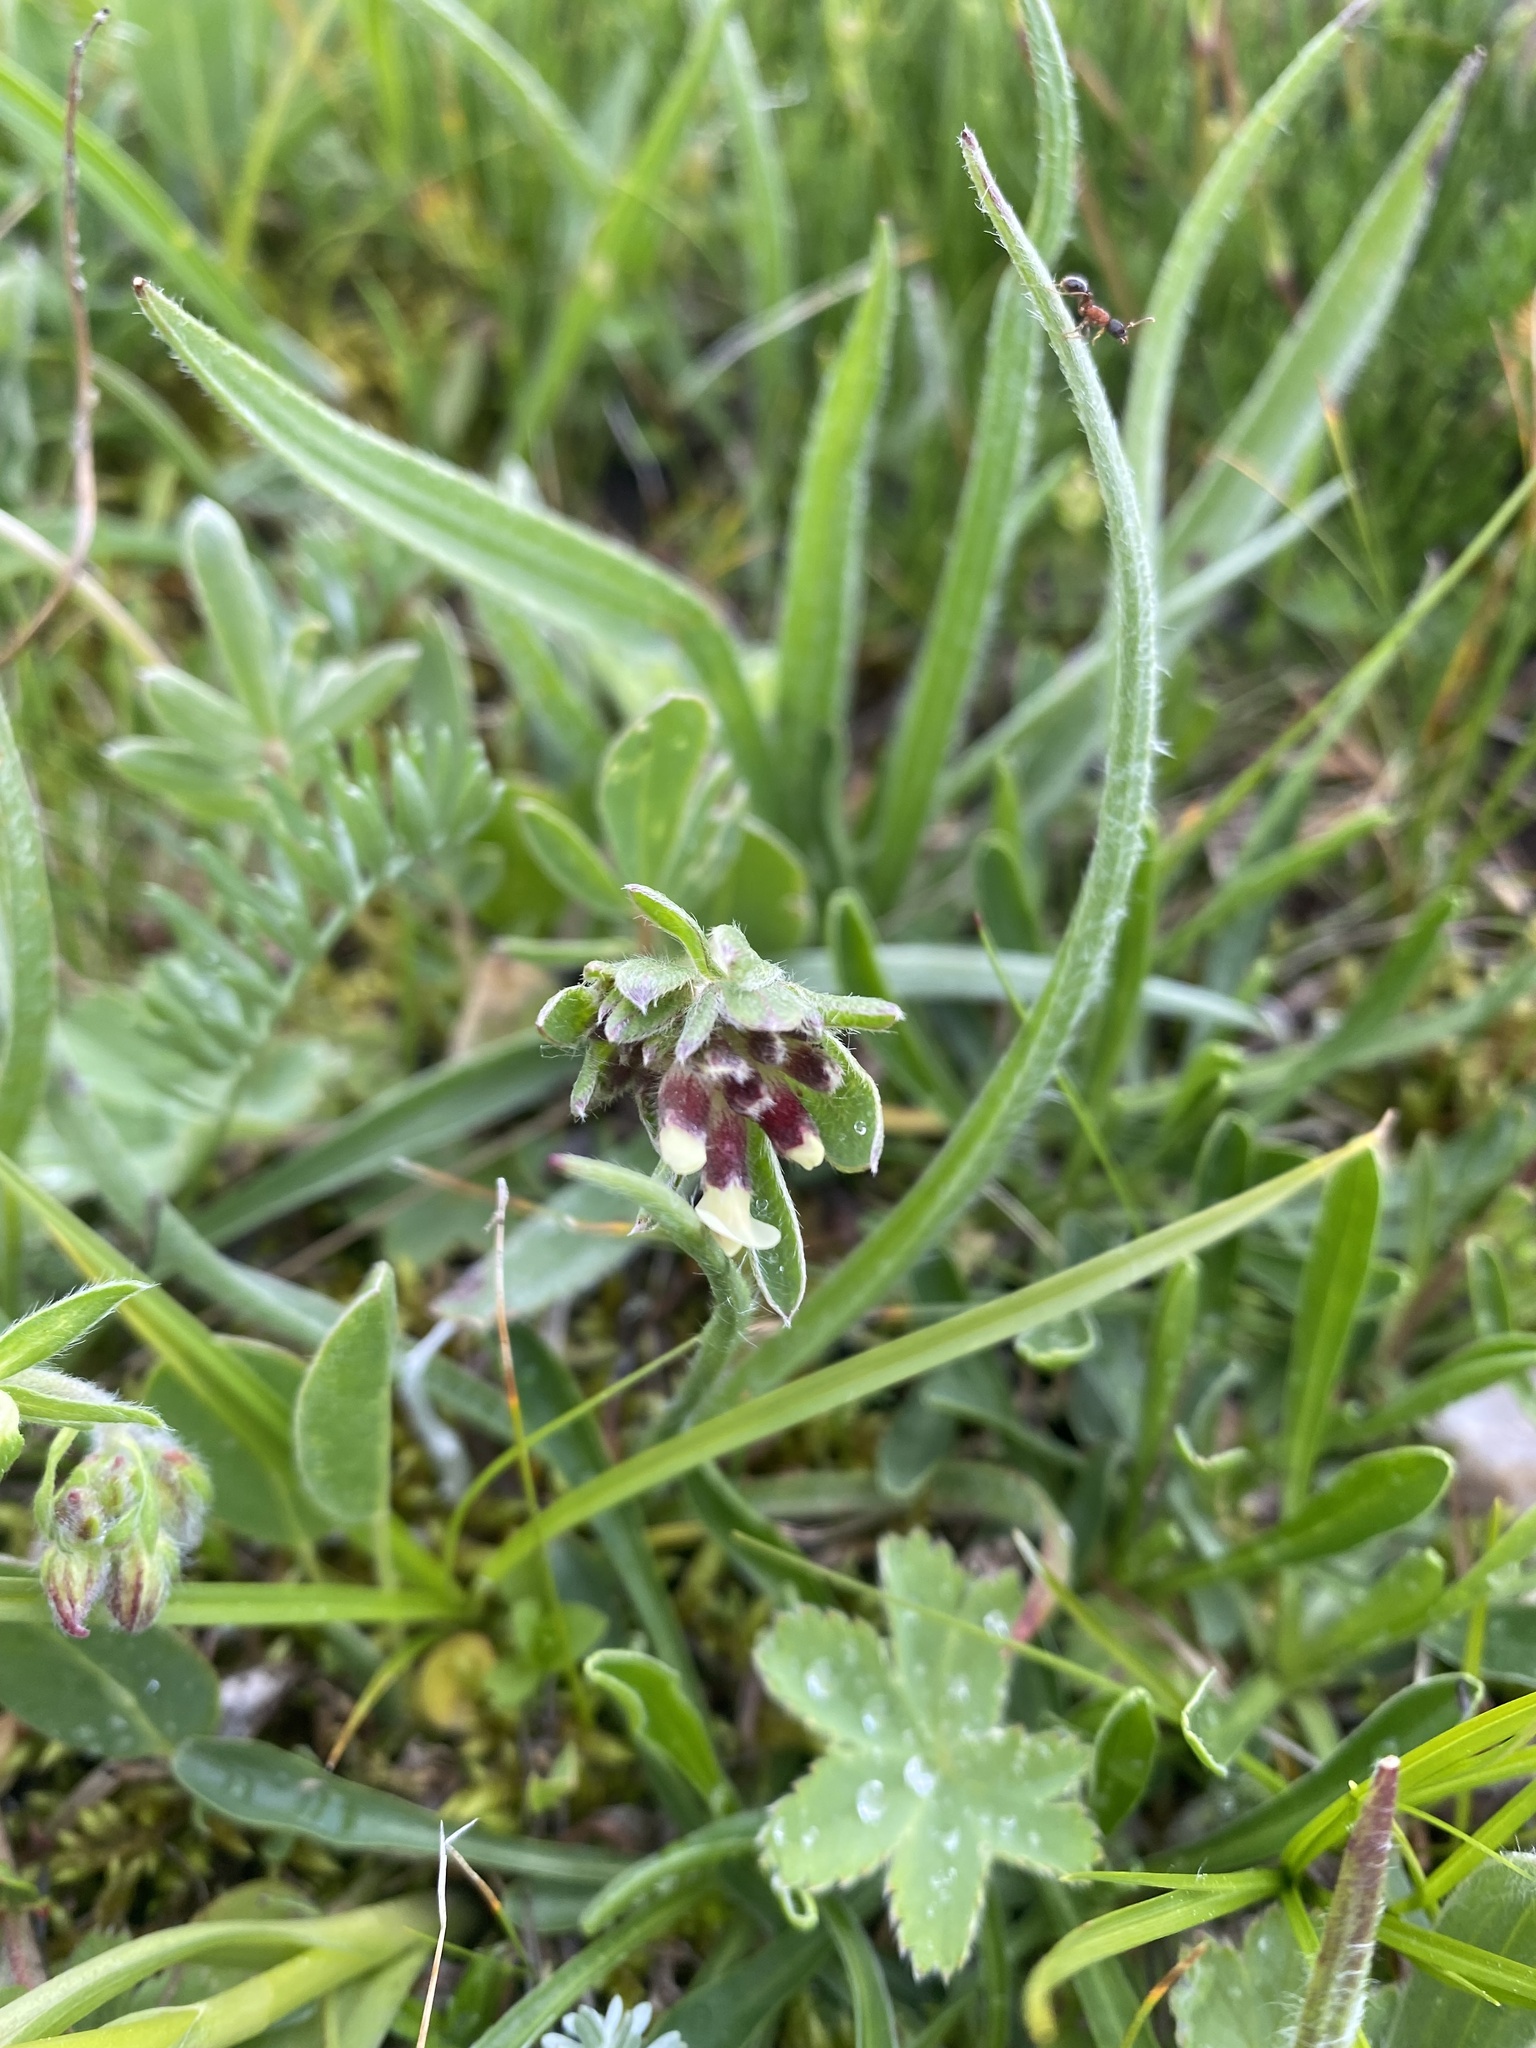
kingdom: Plantae
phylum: Tracheophyta
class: Magnoliopsida
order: Fabales
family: Fabaceae
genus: Anthyllis
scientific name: Anthyllis vulneraria
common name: Kidney vetch
